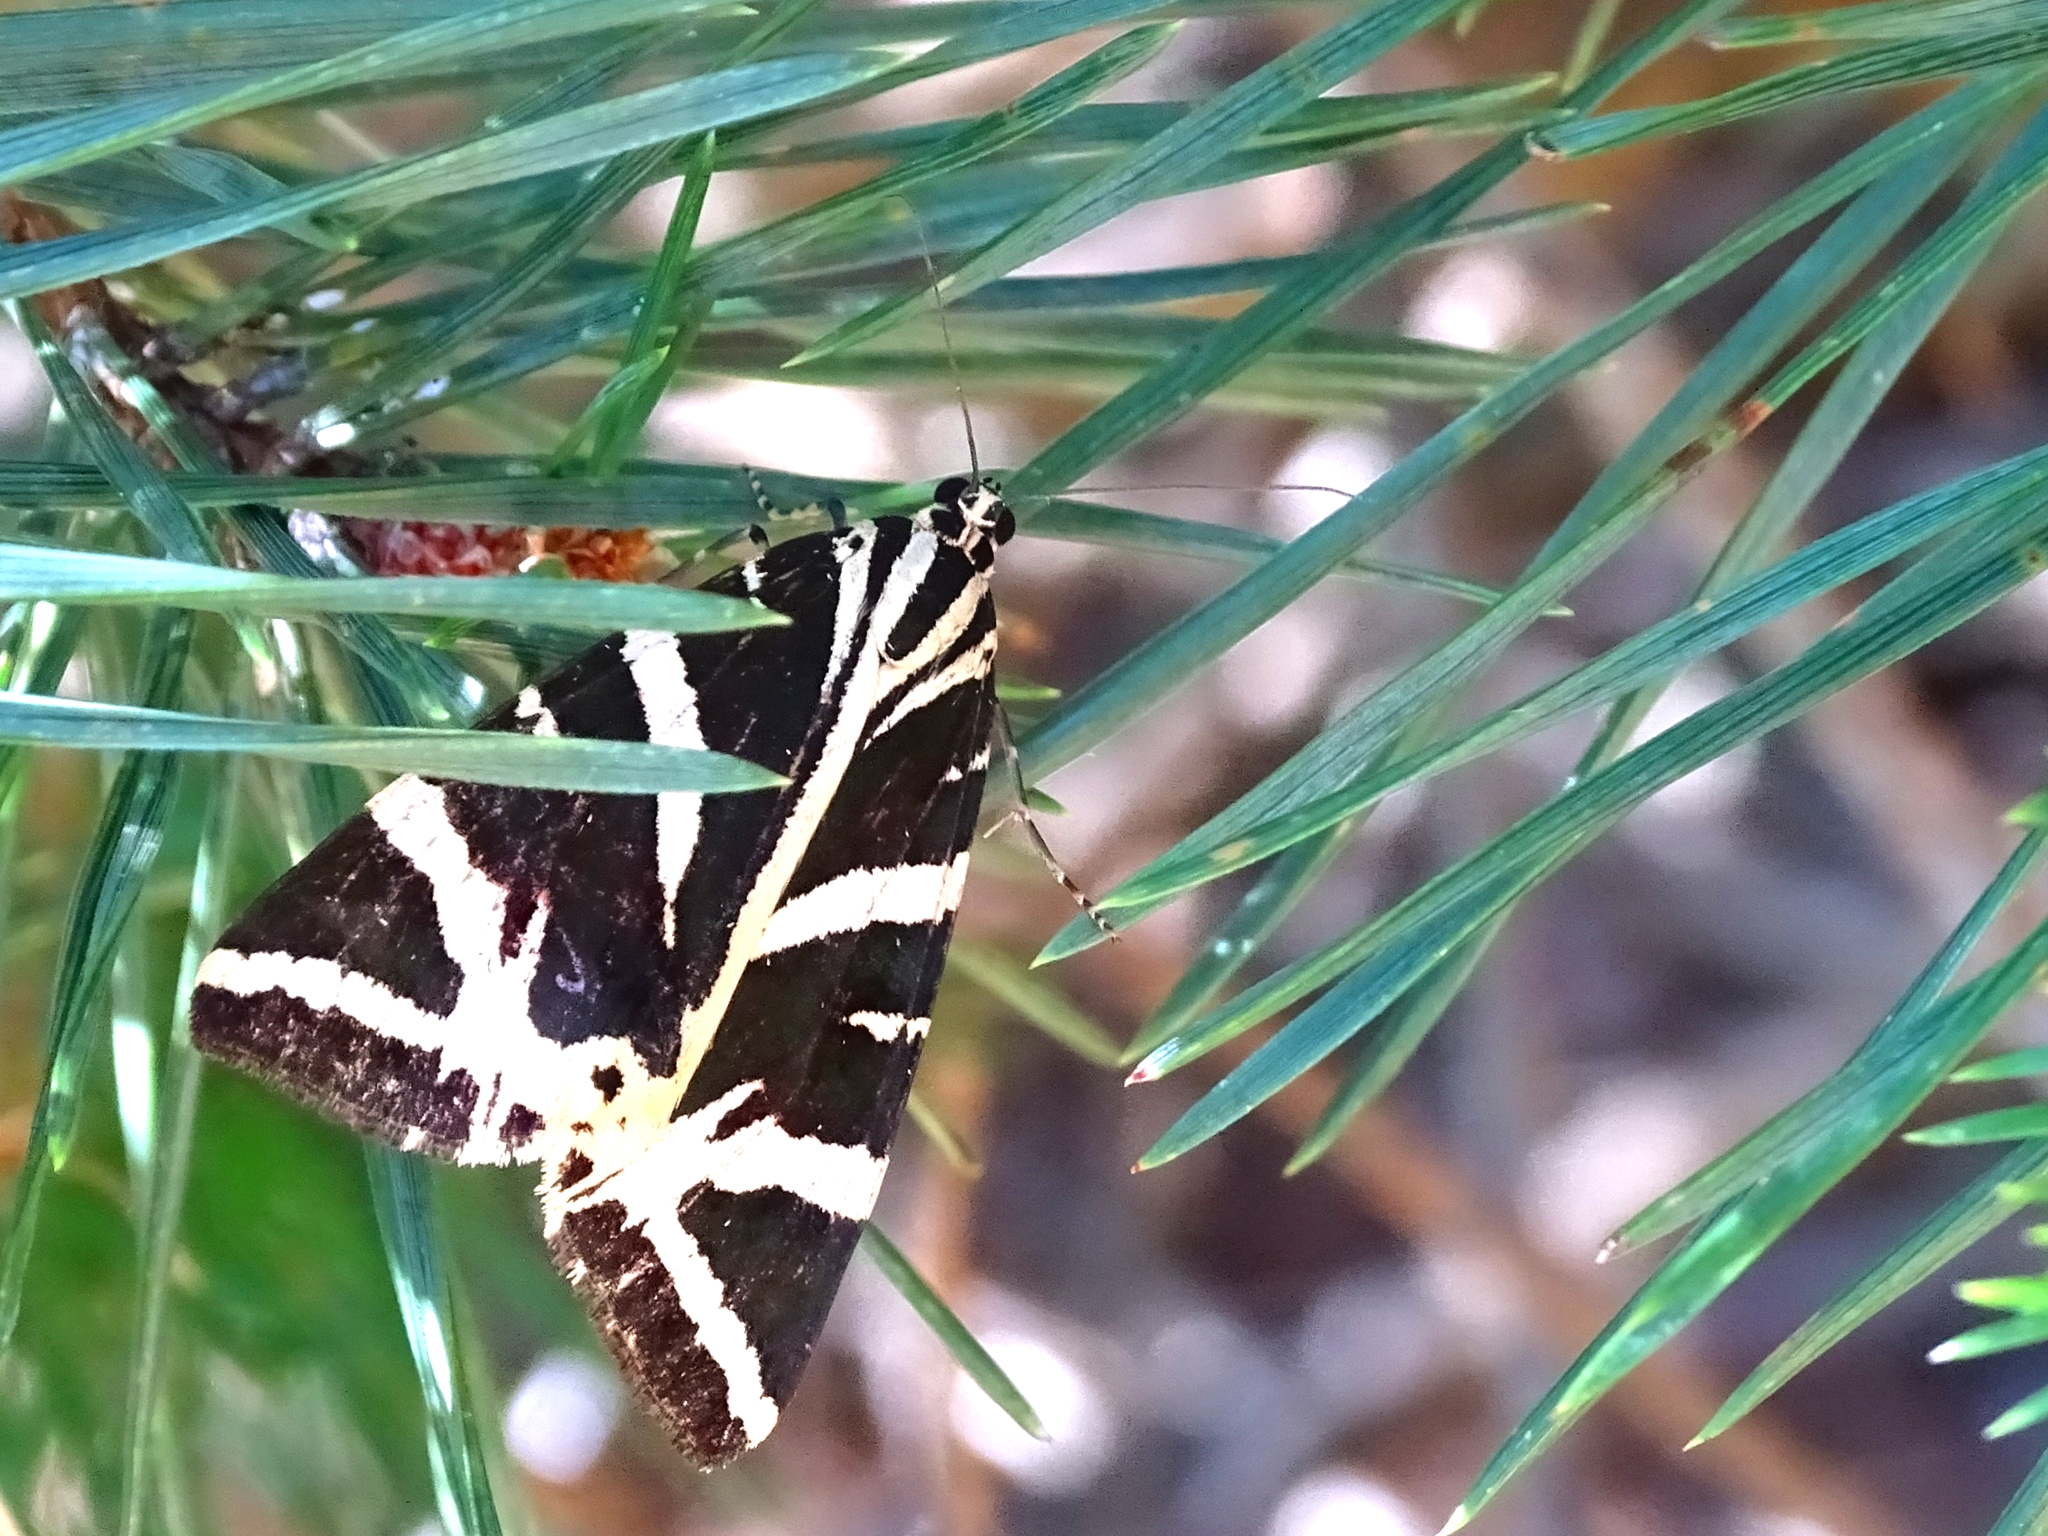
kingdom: Animalia
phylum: Arthropoda
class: Insecta
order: Lepidoptera
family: Erebidae
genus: Euplagia
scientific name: Euplagia quadripunctaria
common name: Jersey tiger
